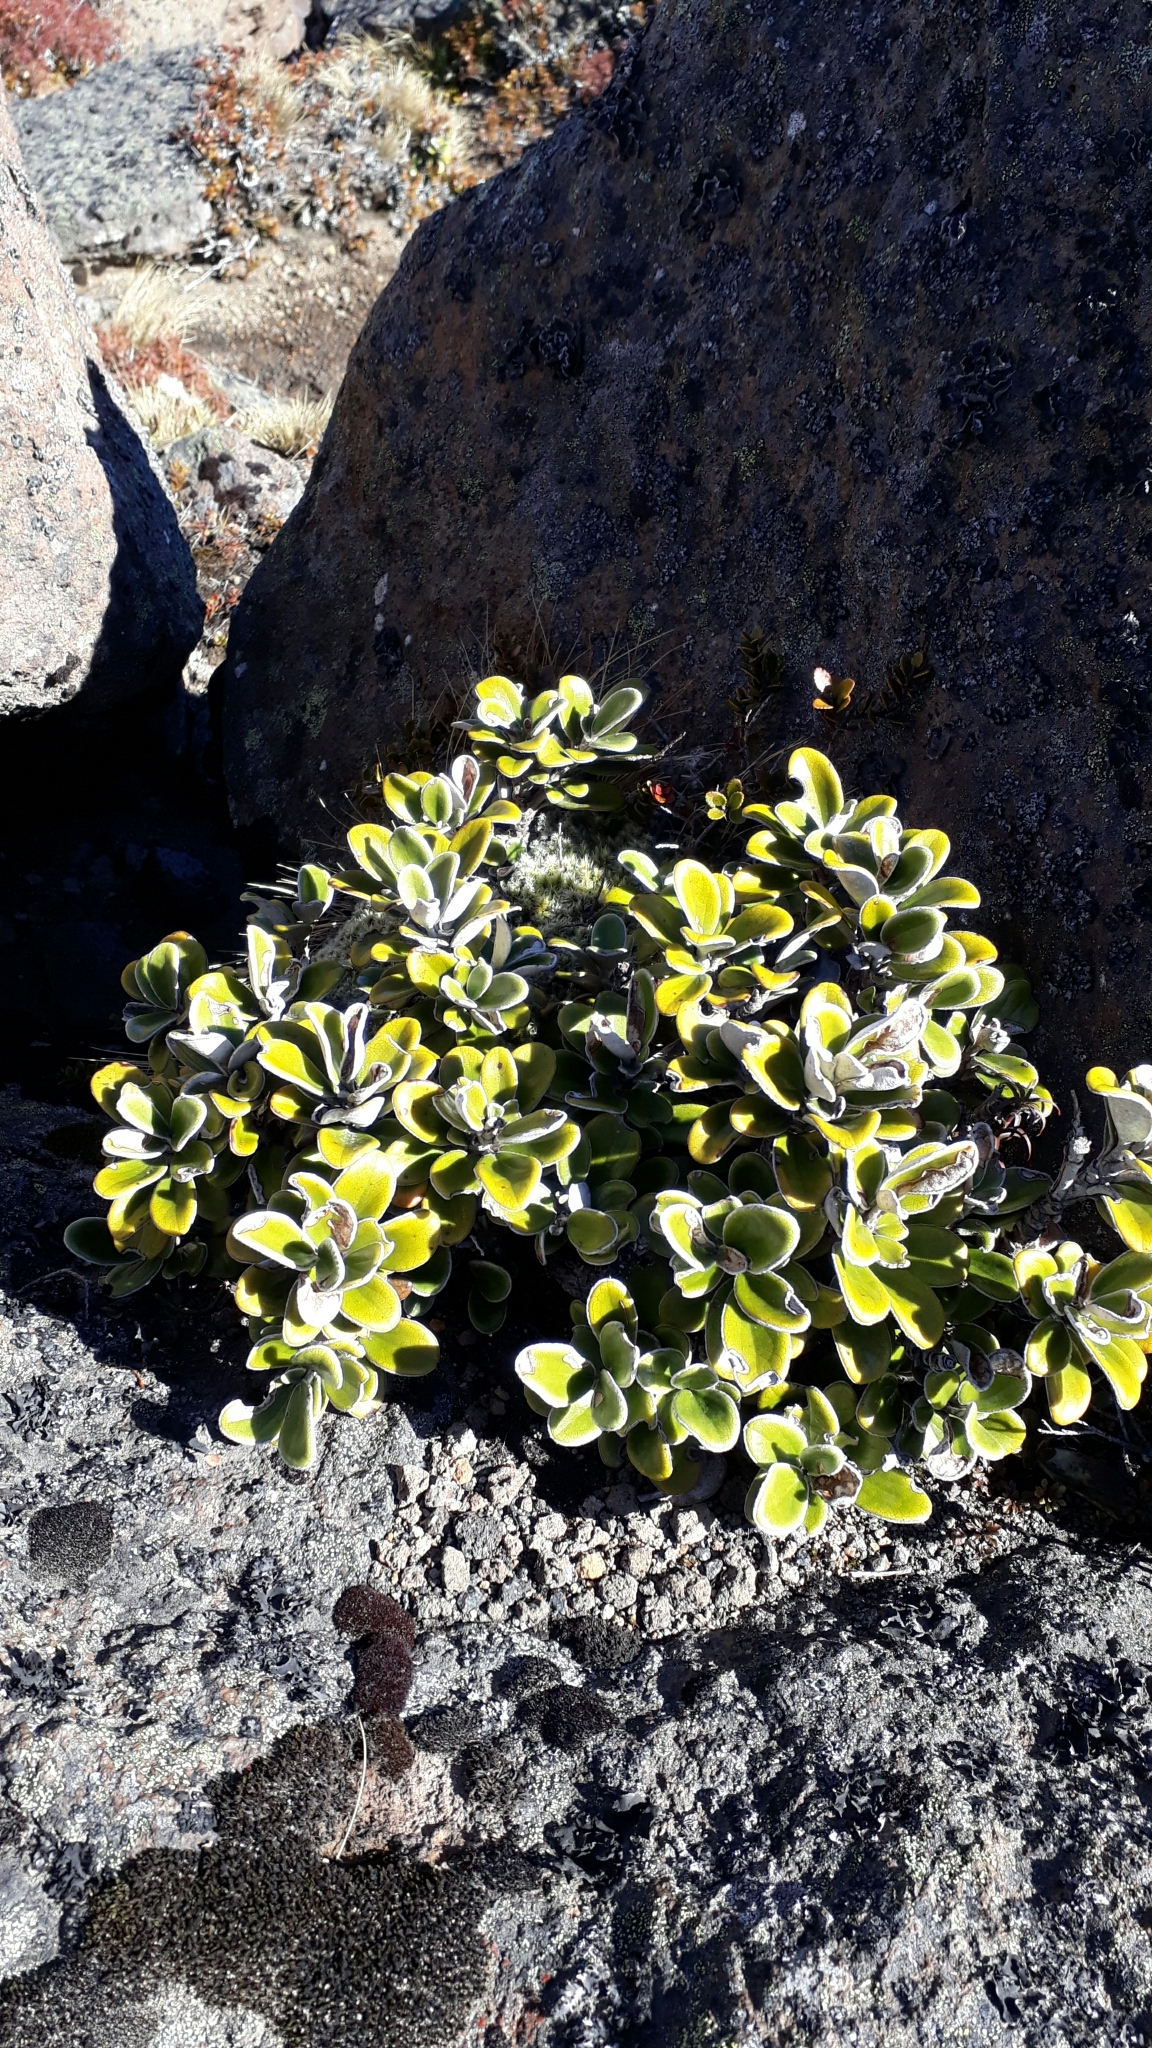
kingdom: Plantae
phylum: Tracheophyta
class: Magnoliopsida
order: Asterales
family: Asteraceae
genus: Brachyglottis
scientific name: Brachyglottis bidwillii
